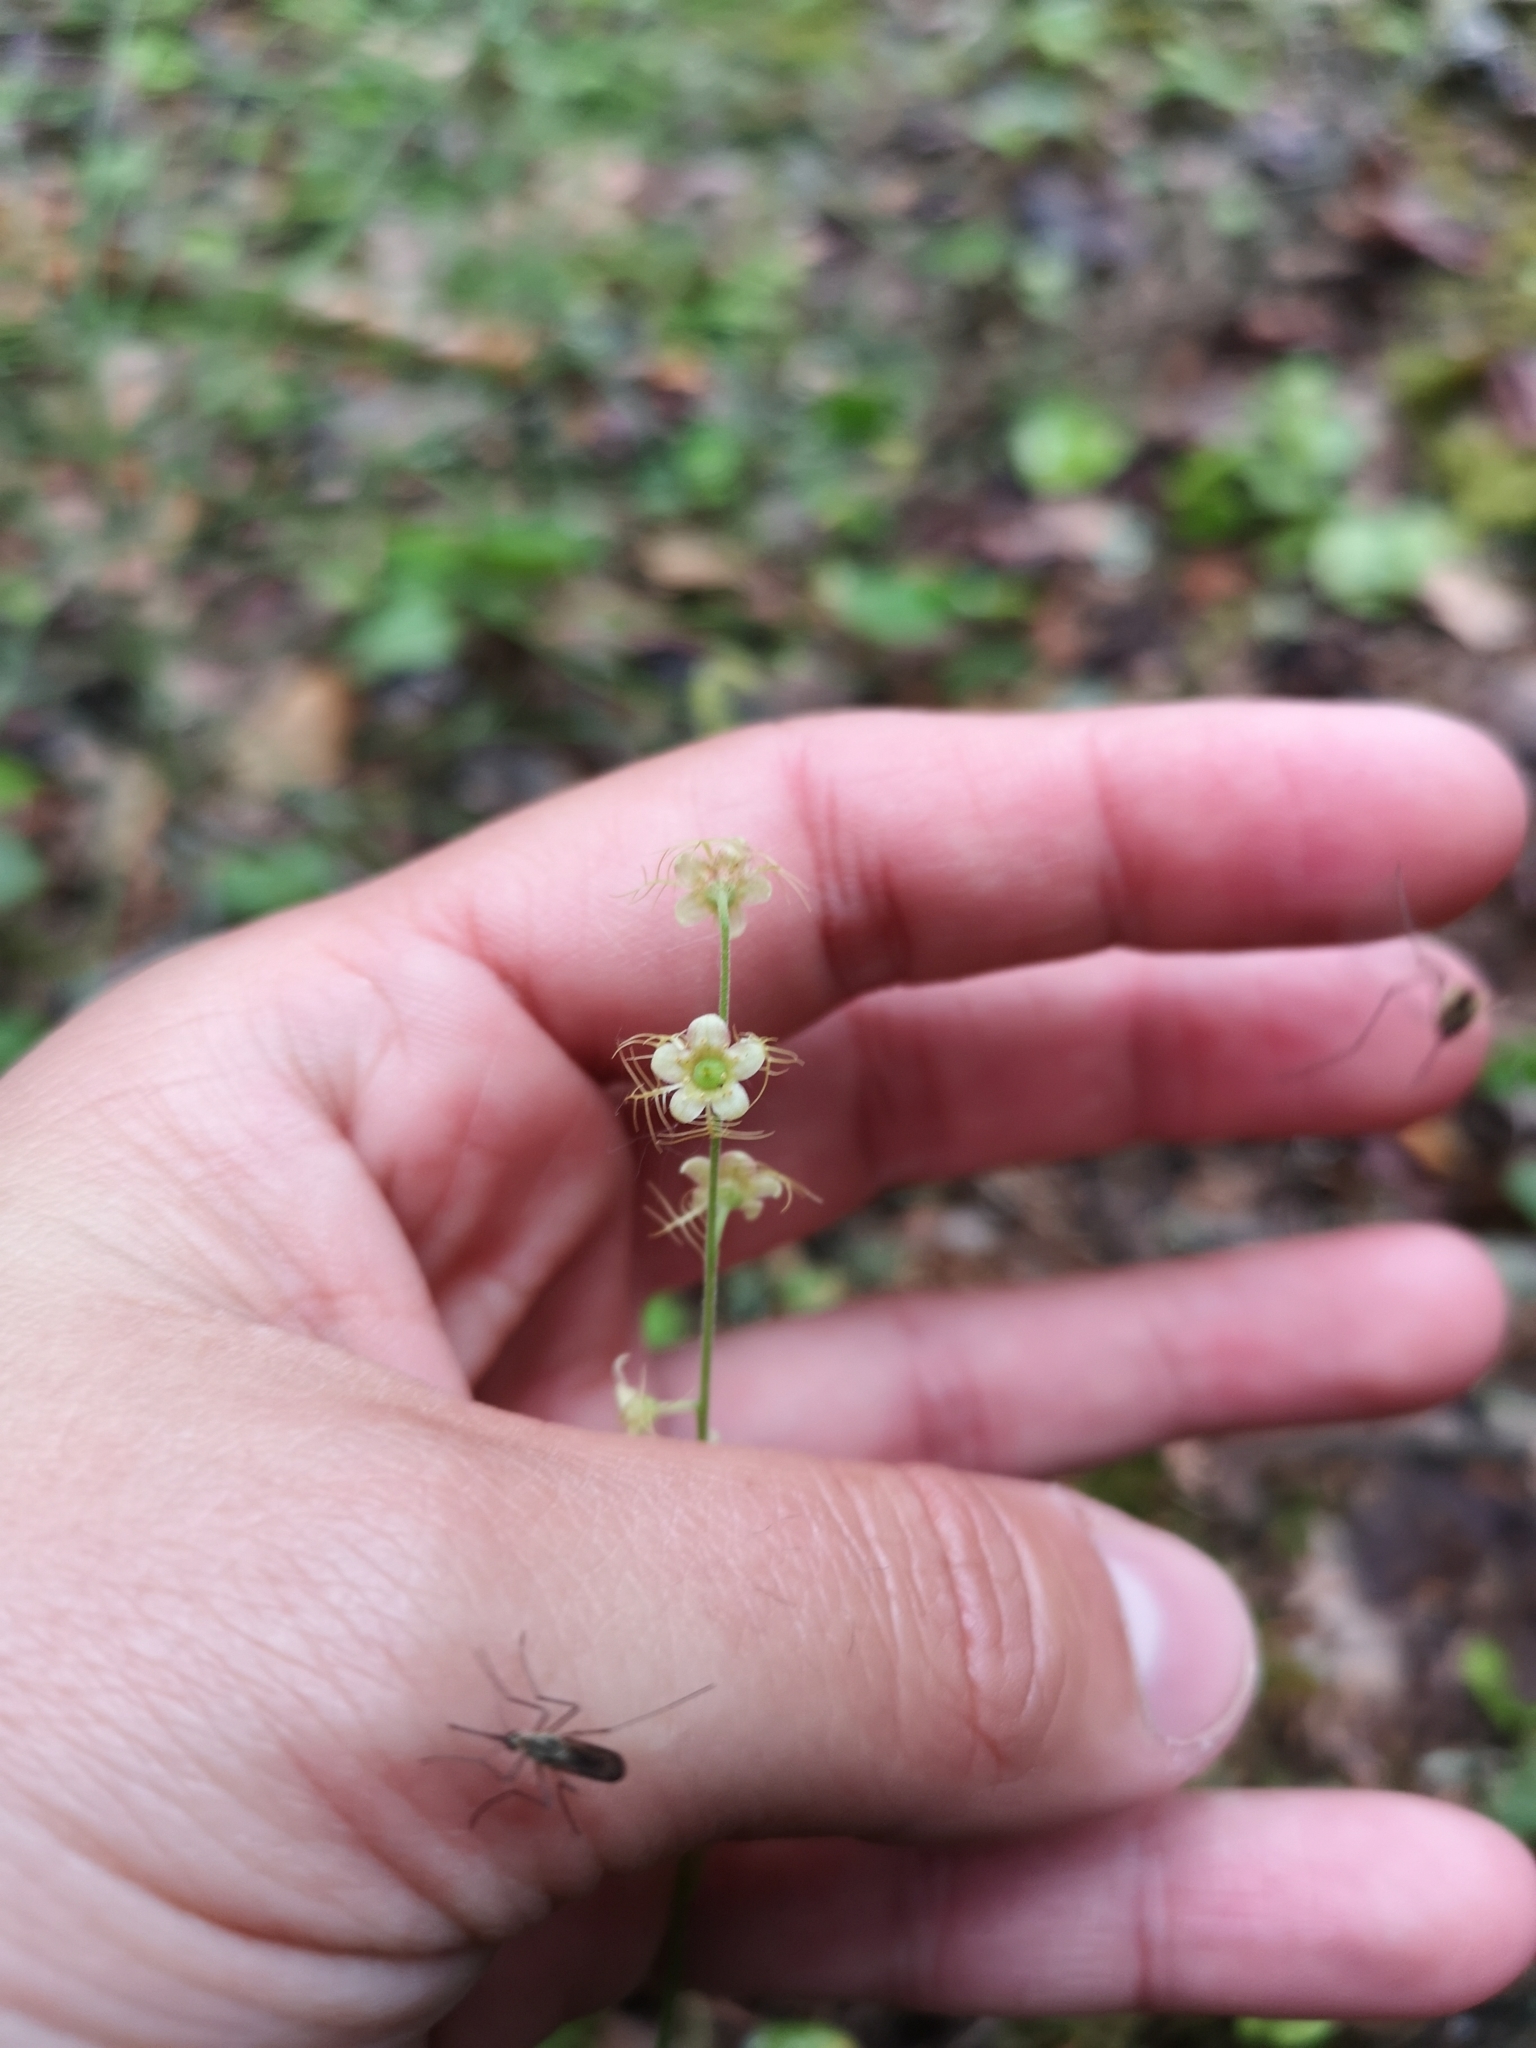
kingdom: Plantae
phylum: Tracheophyta
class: Magnoliopsida
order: Saxifragales
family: Saxifragaceae
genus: Mitella
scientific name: Mitella nuda
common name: Bare-stemmed bishop's-cap
